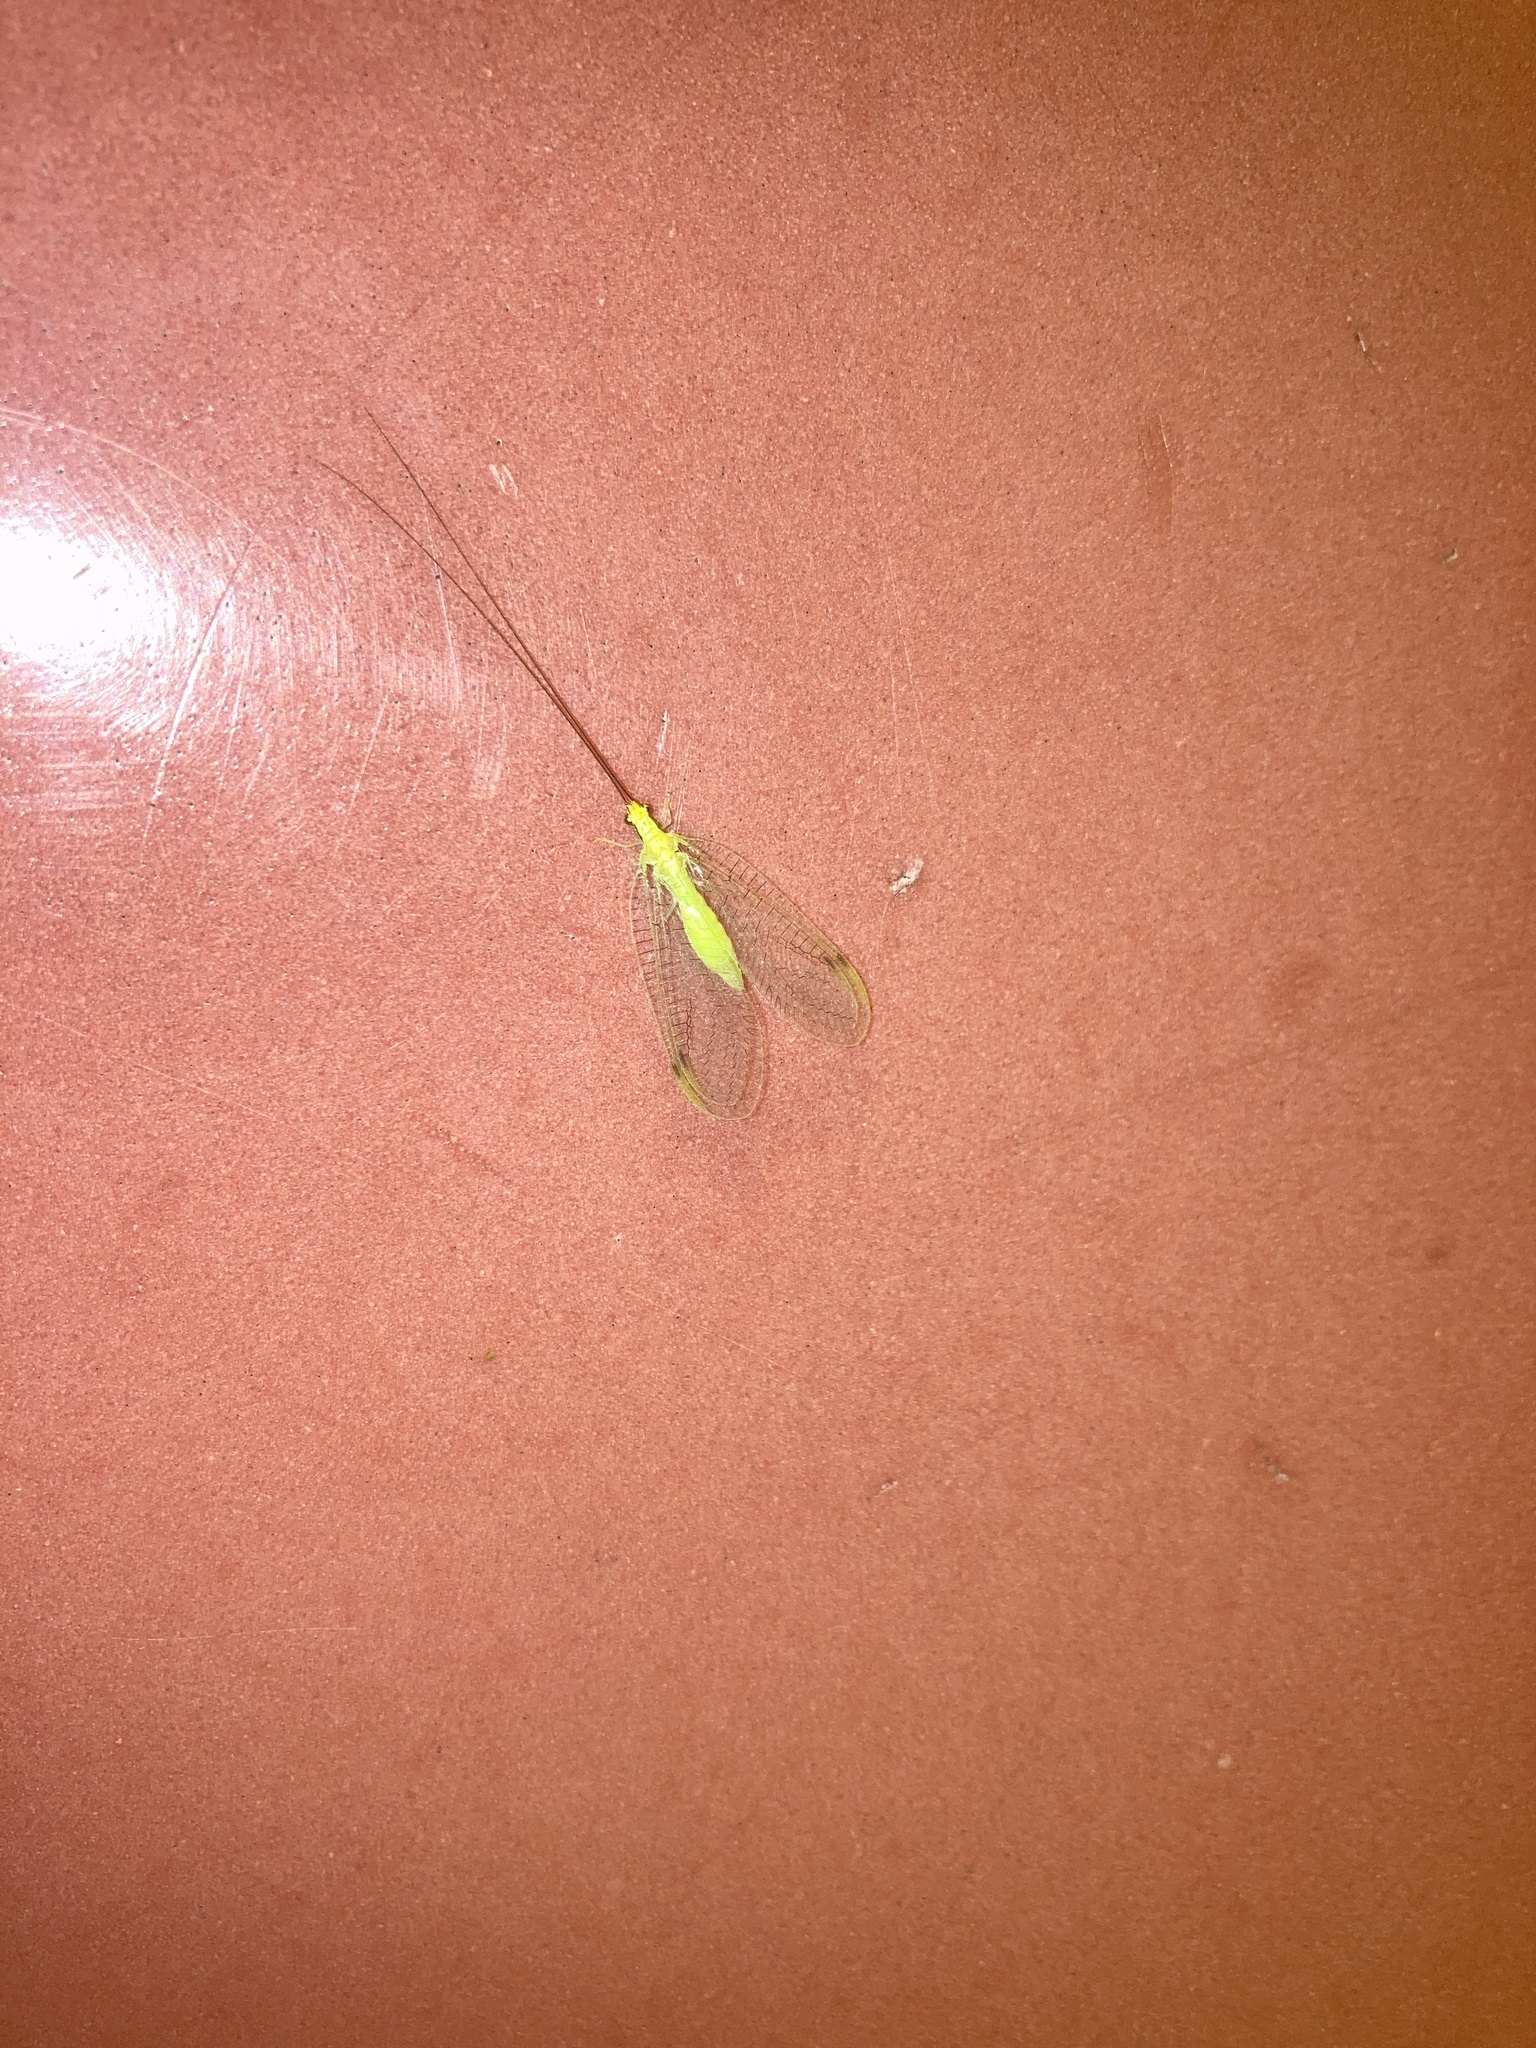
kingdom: Animalia
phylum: Arthropoda
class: Insecta
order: Neuroptera
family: Chrysopidae
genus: Leucochrysa
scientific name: Leucochrysa pavida
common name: Lichen-carrying green lacewing
